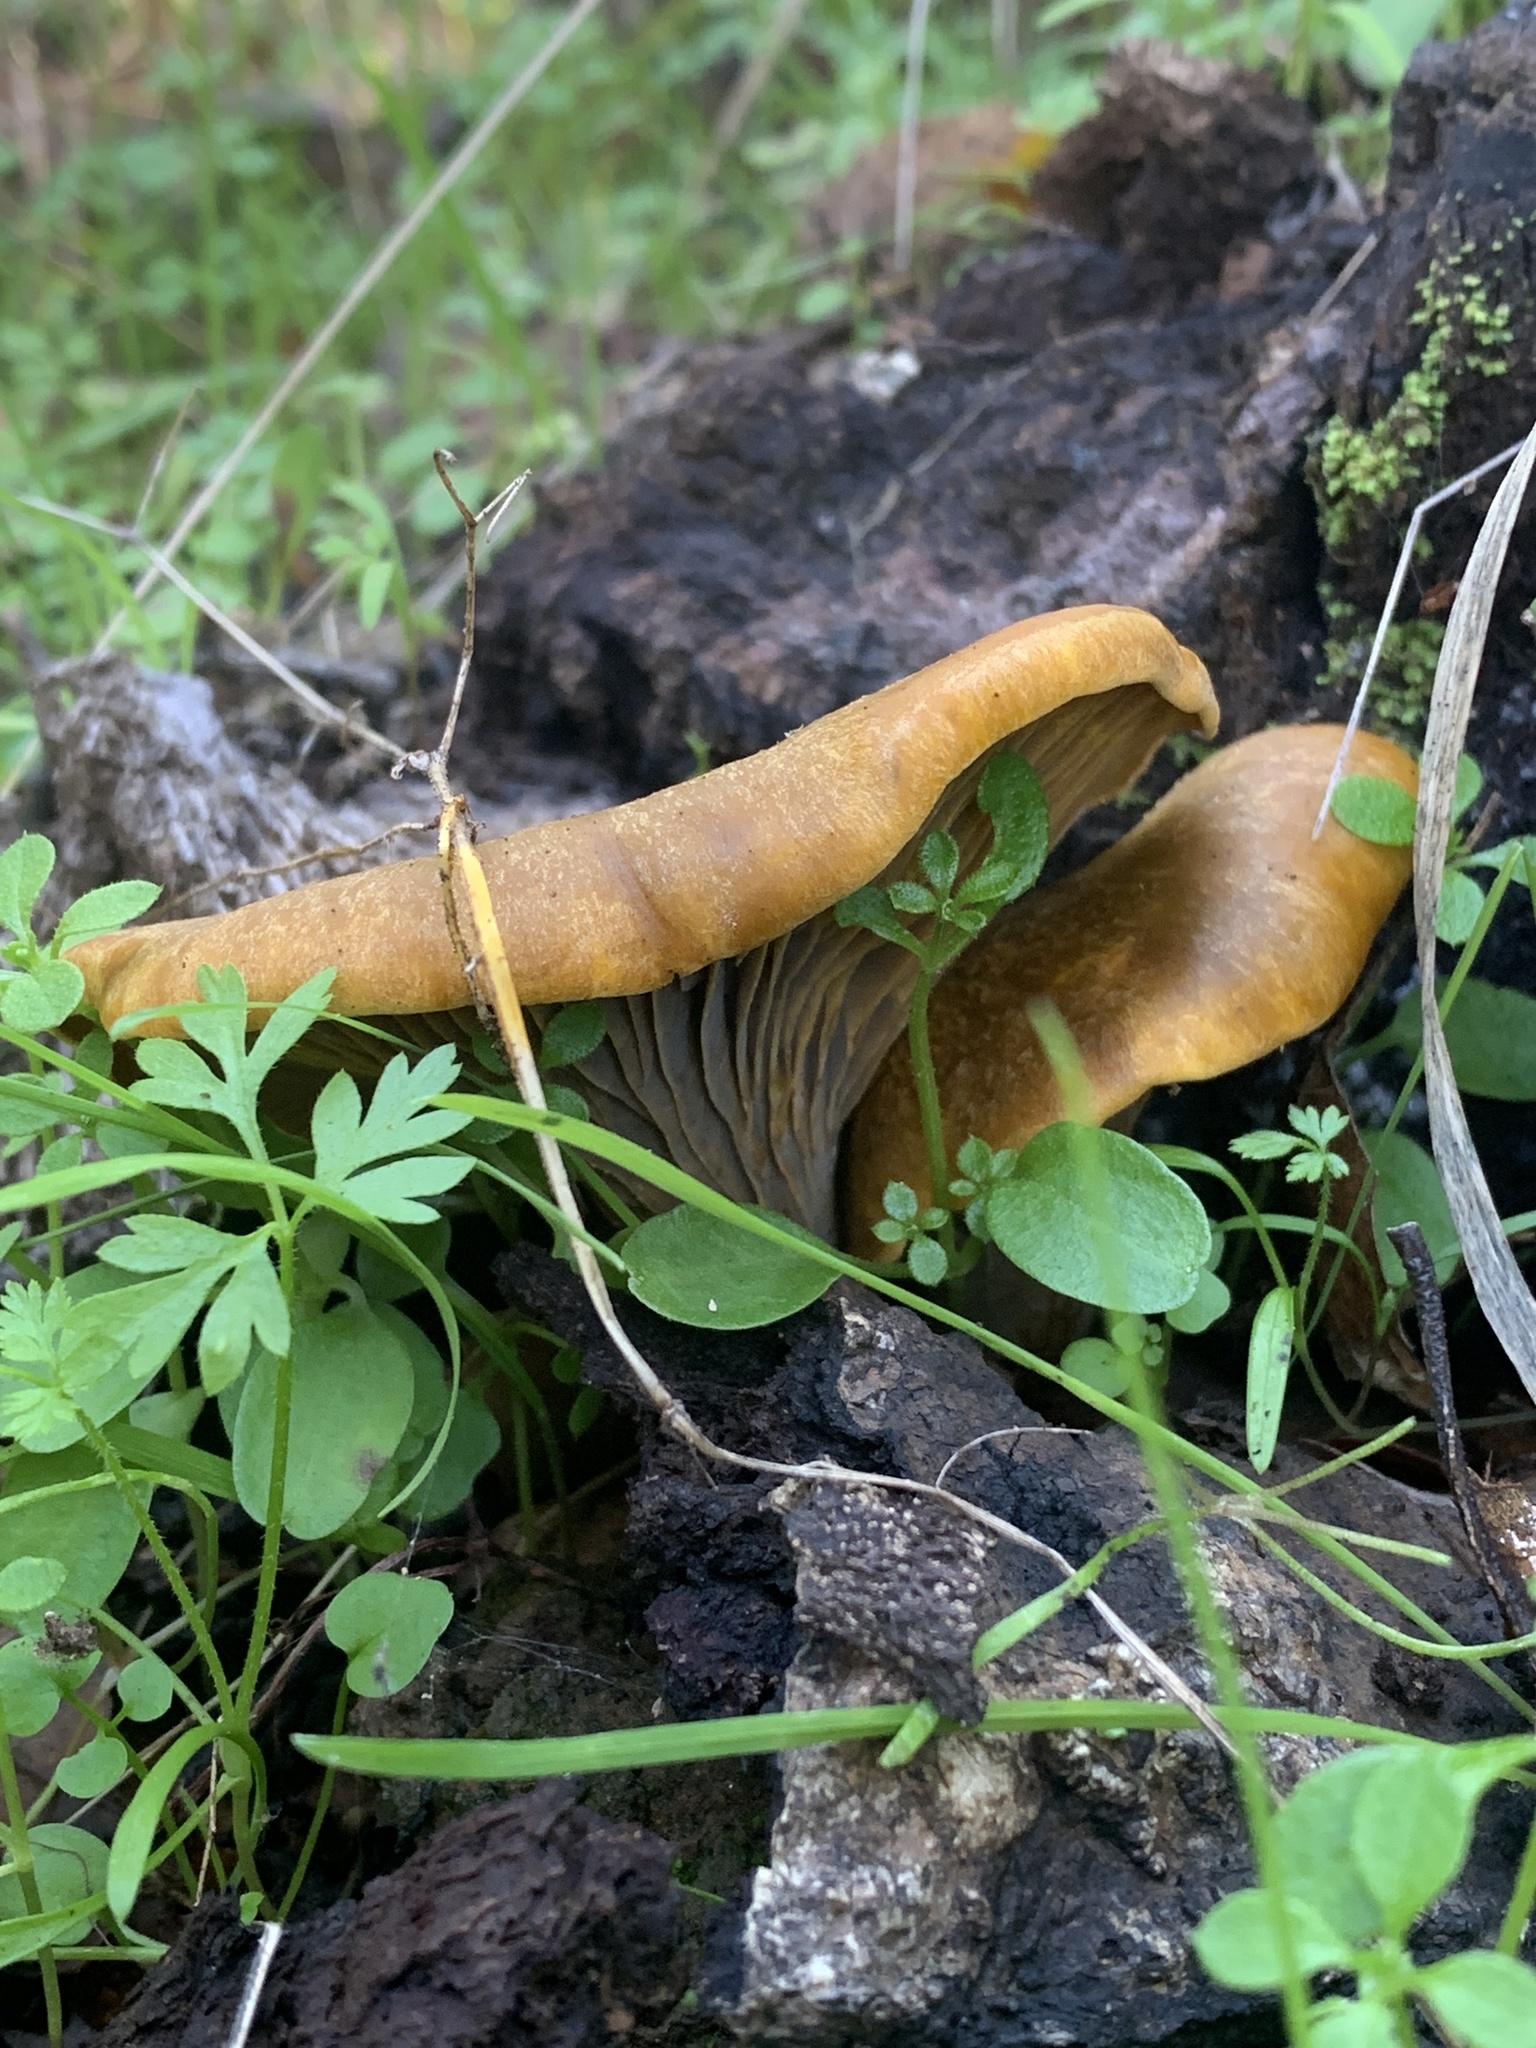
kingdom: Fungi
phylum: Basidiomycota
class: Agaricomycetes
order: Agaricales
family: Omphalotaceae
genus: Omphalotus
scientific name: Omphalotus olivascens
